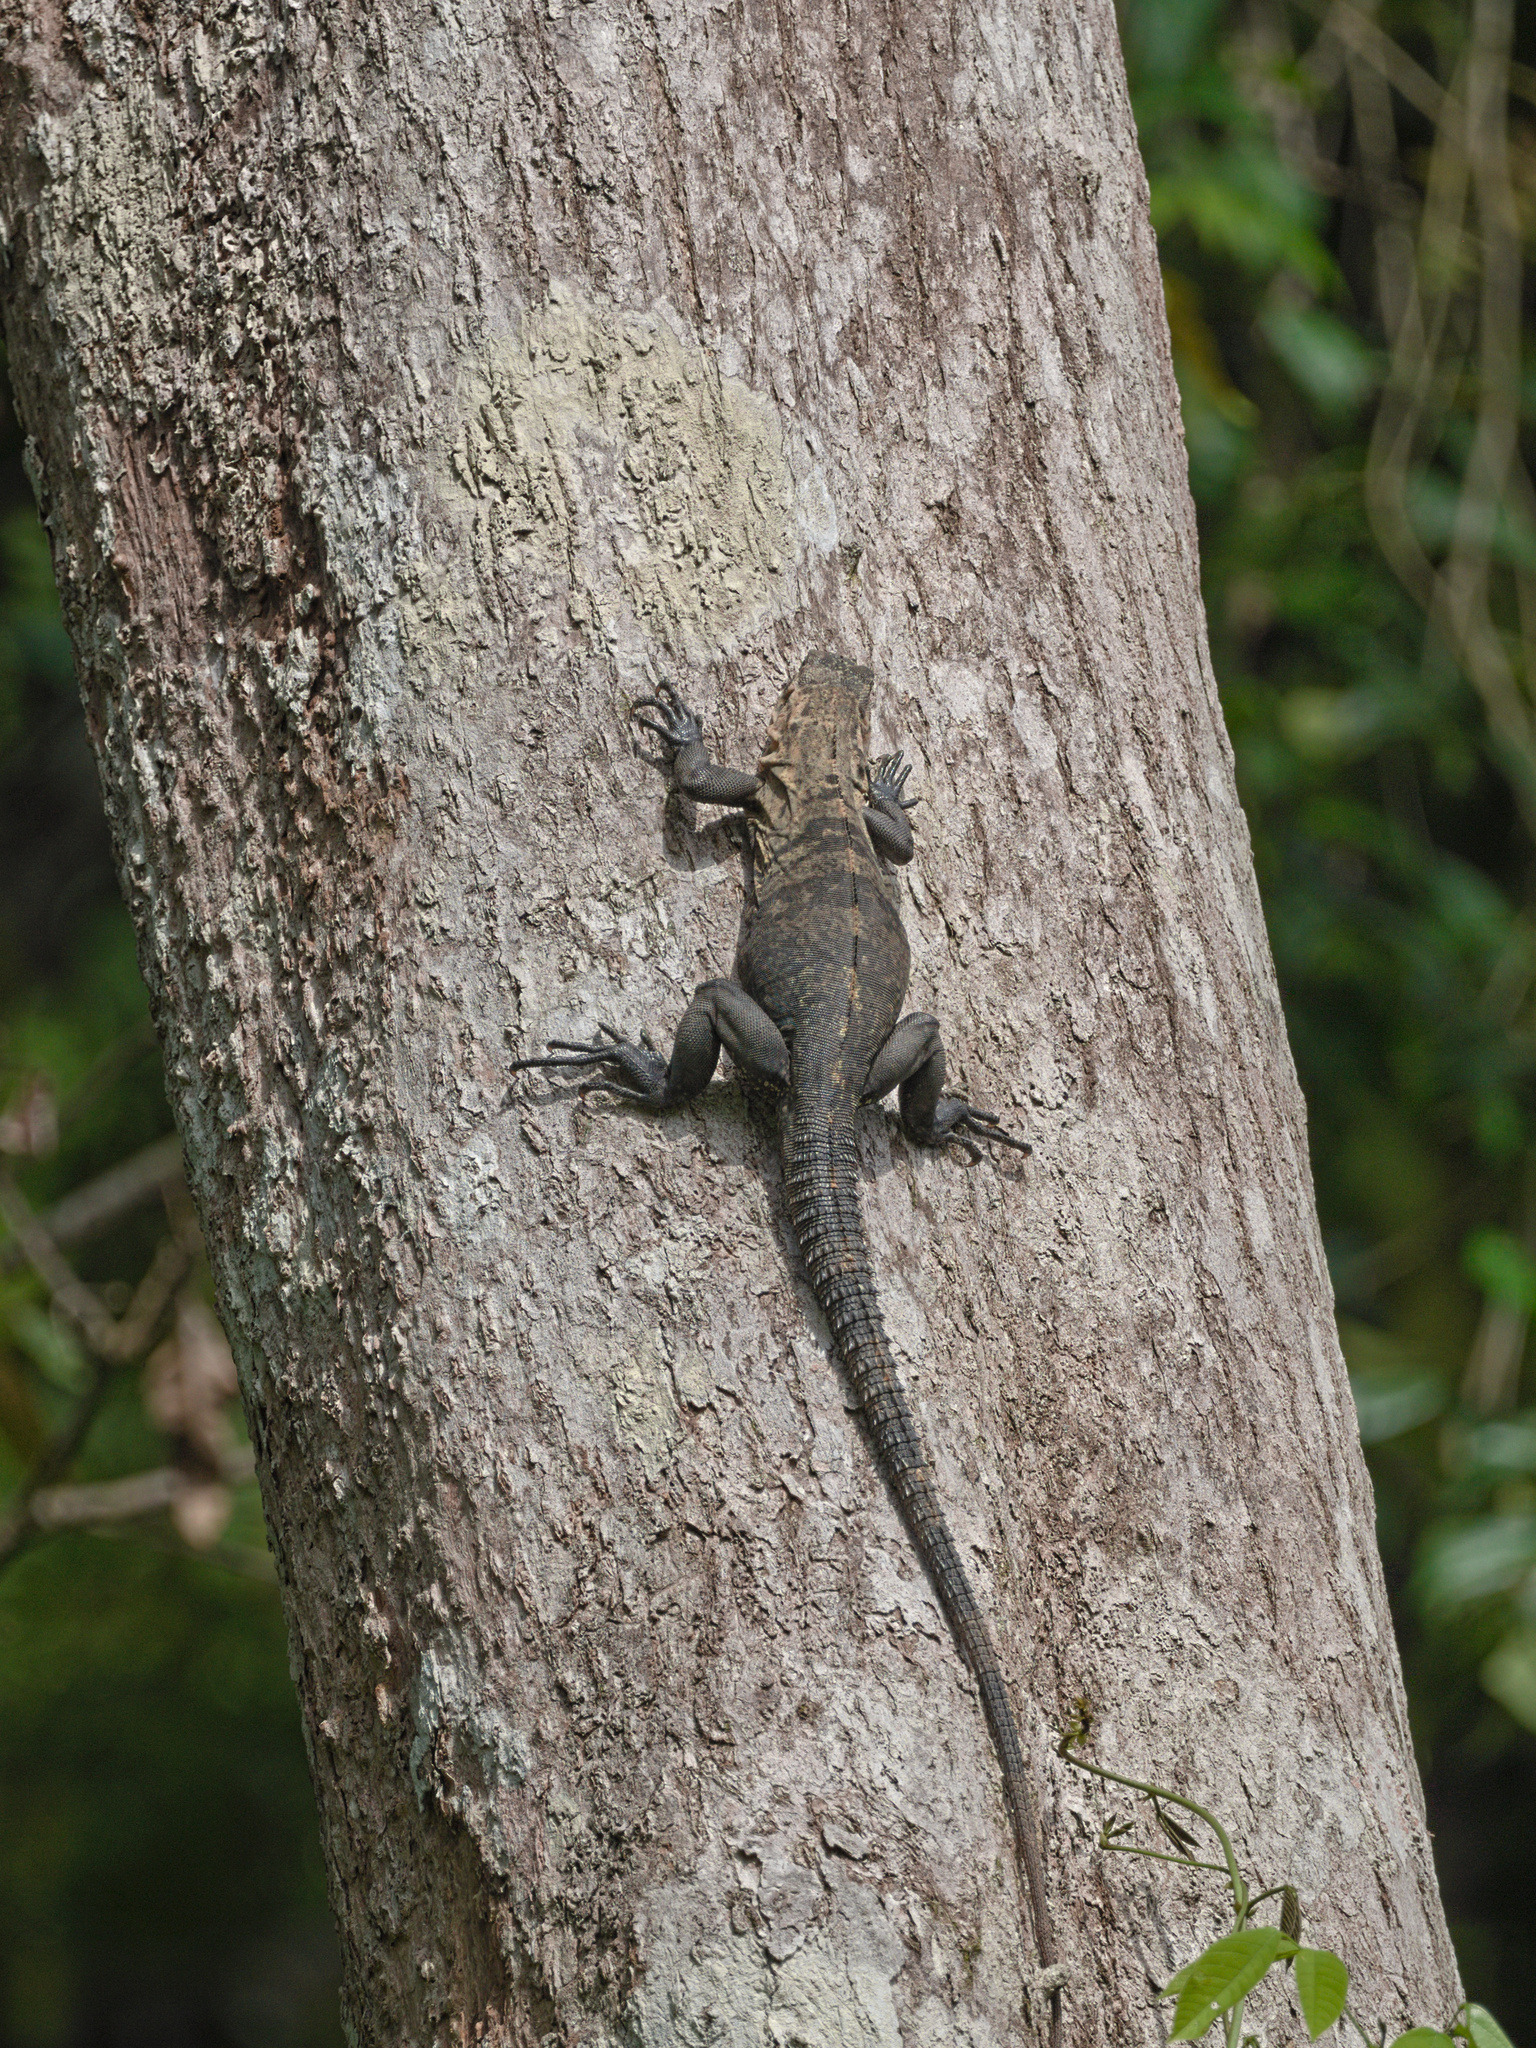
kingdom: Animalia
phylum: Chordata
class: Squamata
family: Iguanidae
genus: Ctenosaura
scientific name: Ctenosaura similis
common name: Black spiny-tailed iguana
